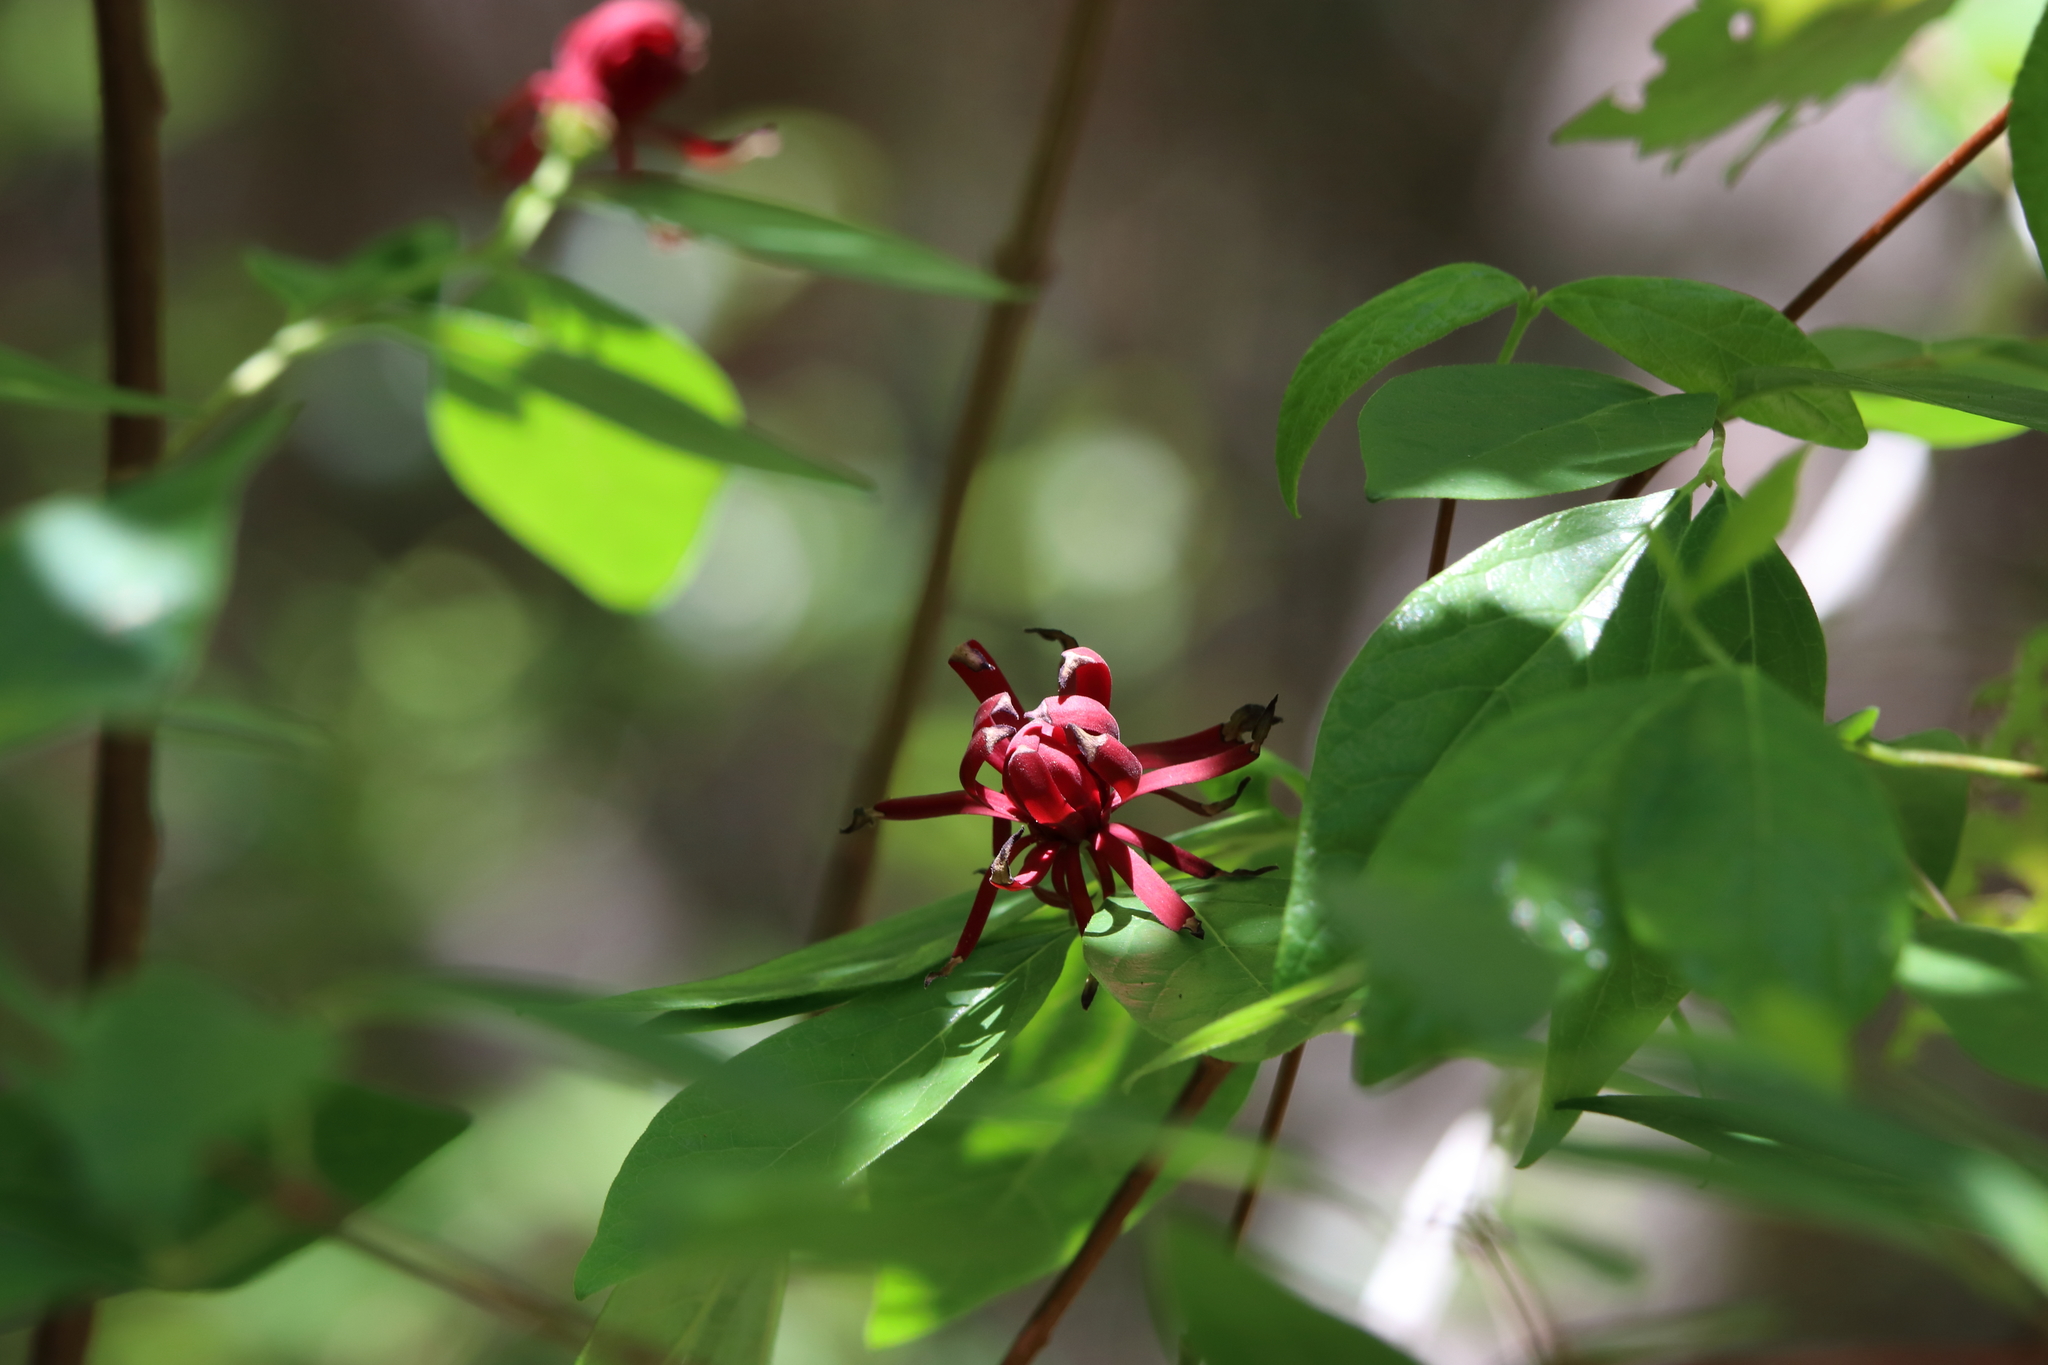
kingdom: Plantae
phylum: Tracheophyta
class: Magnoliopsida
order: Laurales
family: Calycanthaceae
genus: Calycanthus
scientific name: Calycanthus floridus
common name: Carolina-allspice
